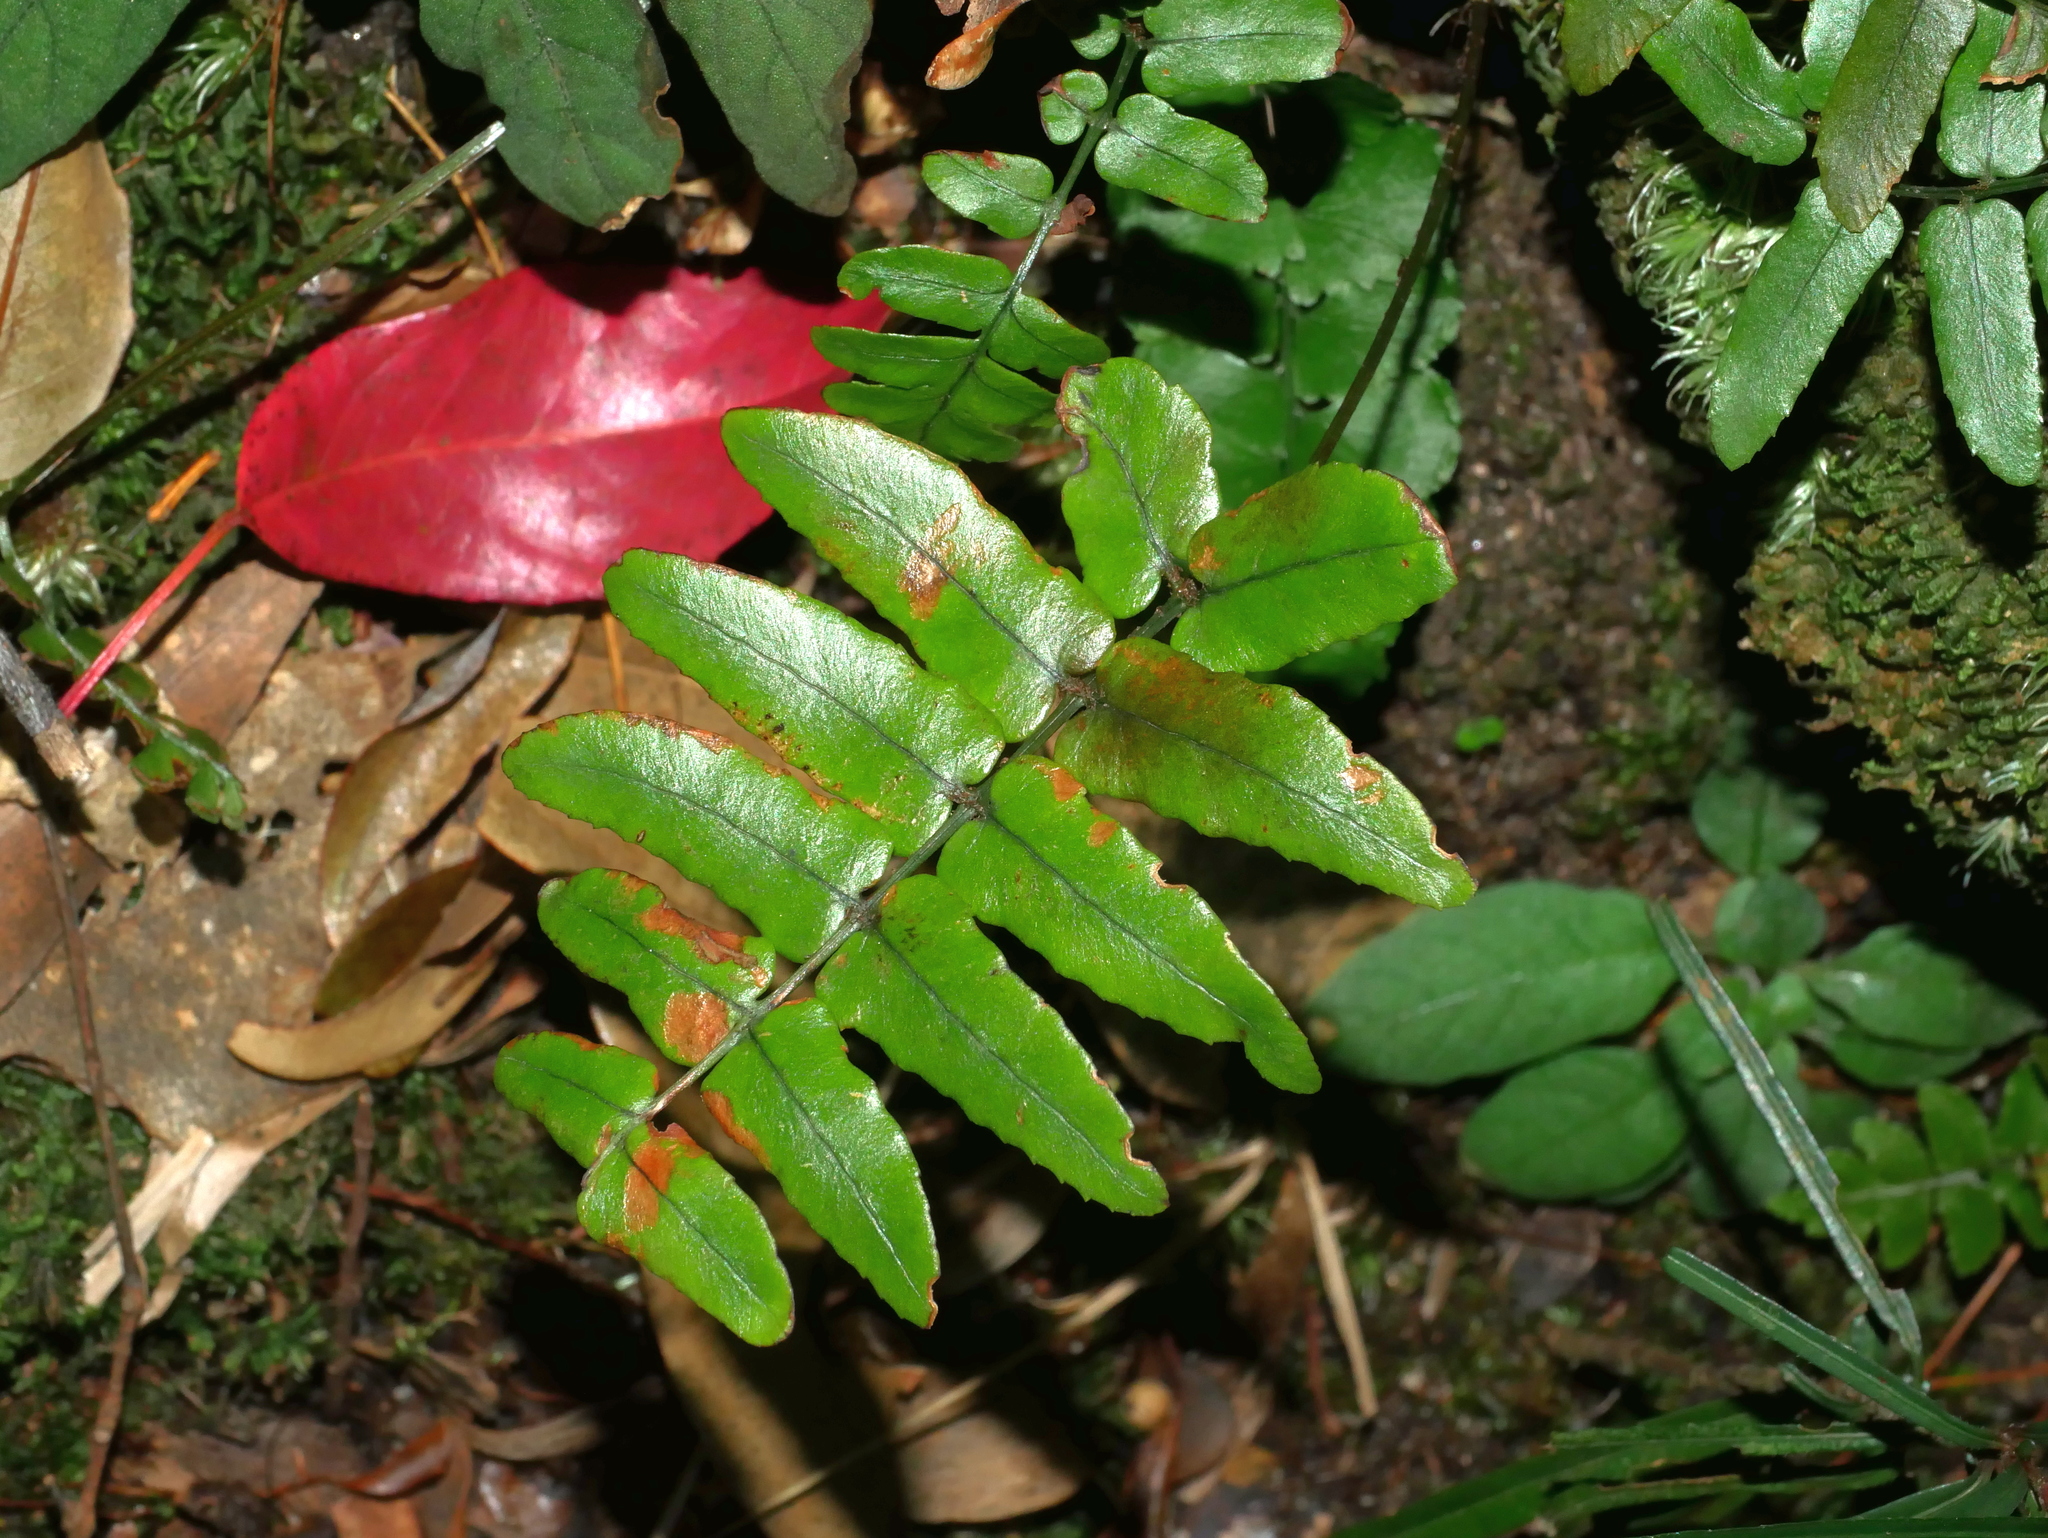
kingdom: Plantae
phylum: Tracheophyta
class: Polypodiopsida
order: Polypodiales
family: Dryopteridaceae
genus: Dryopteris
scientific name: Dryopteris decipiens
